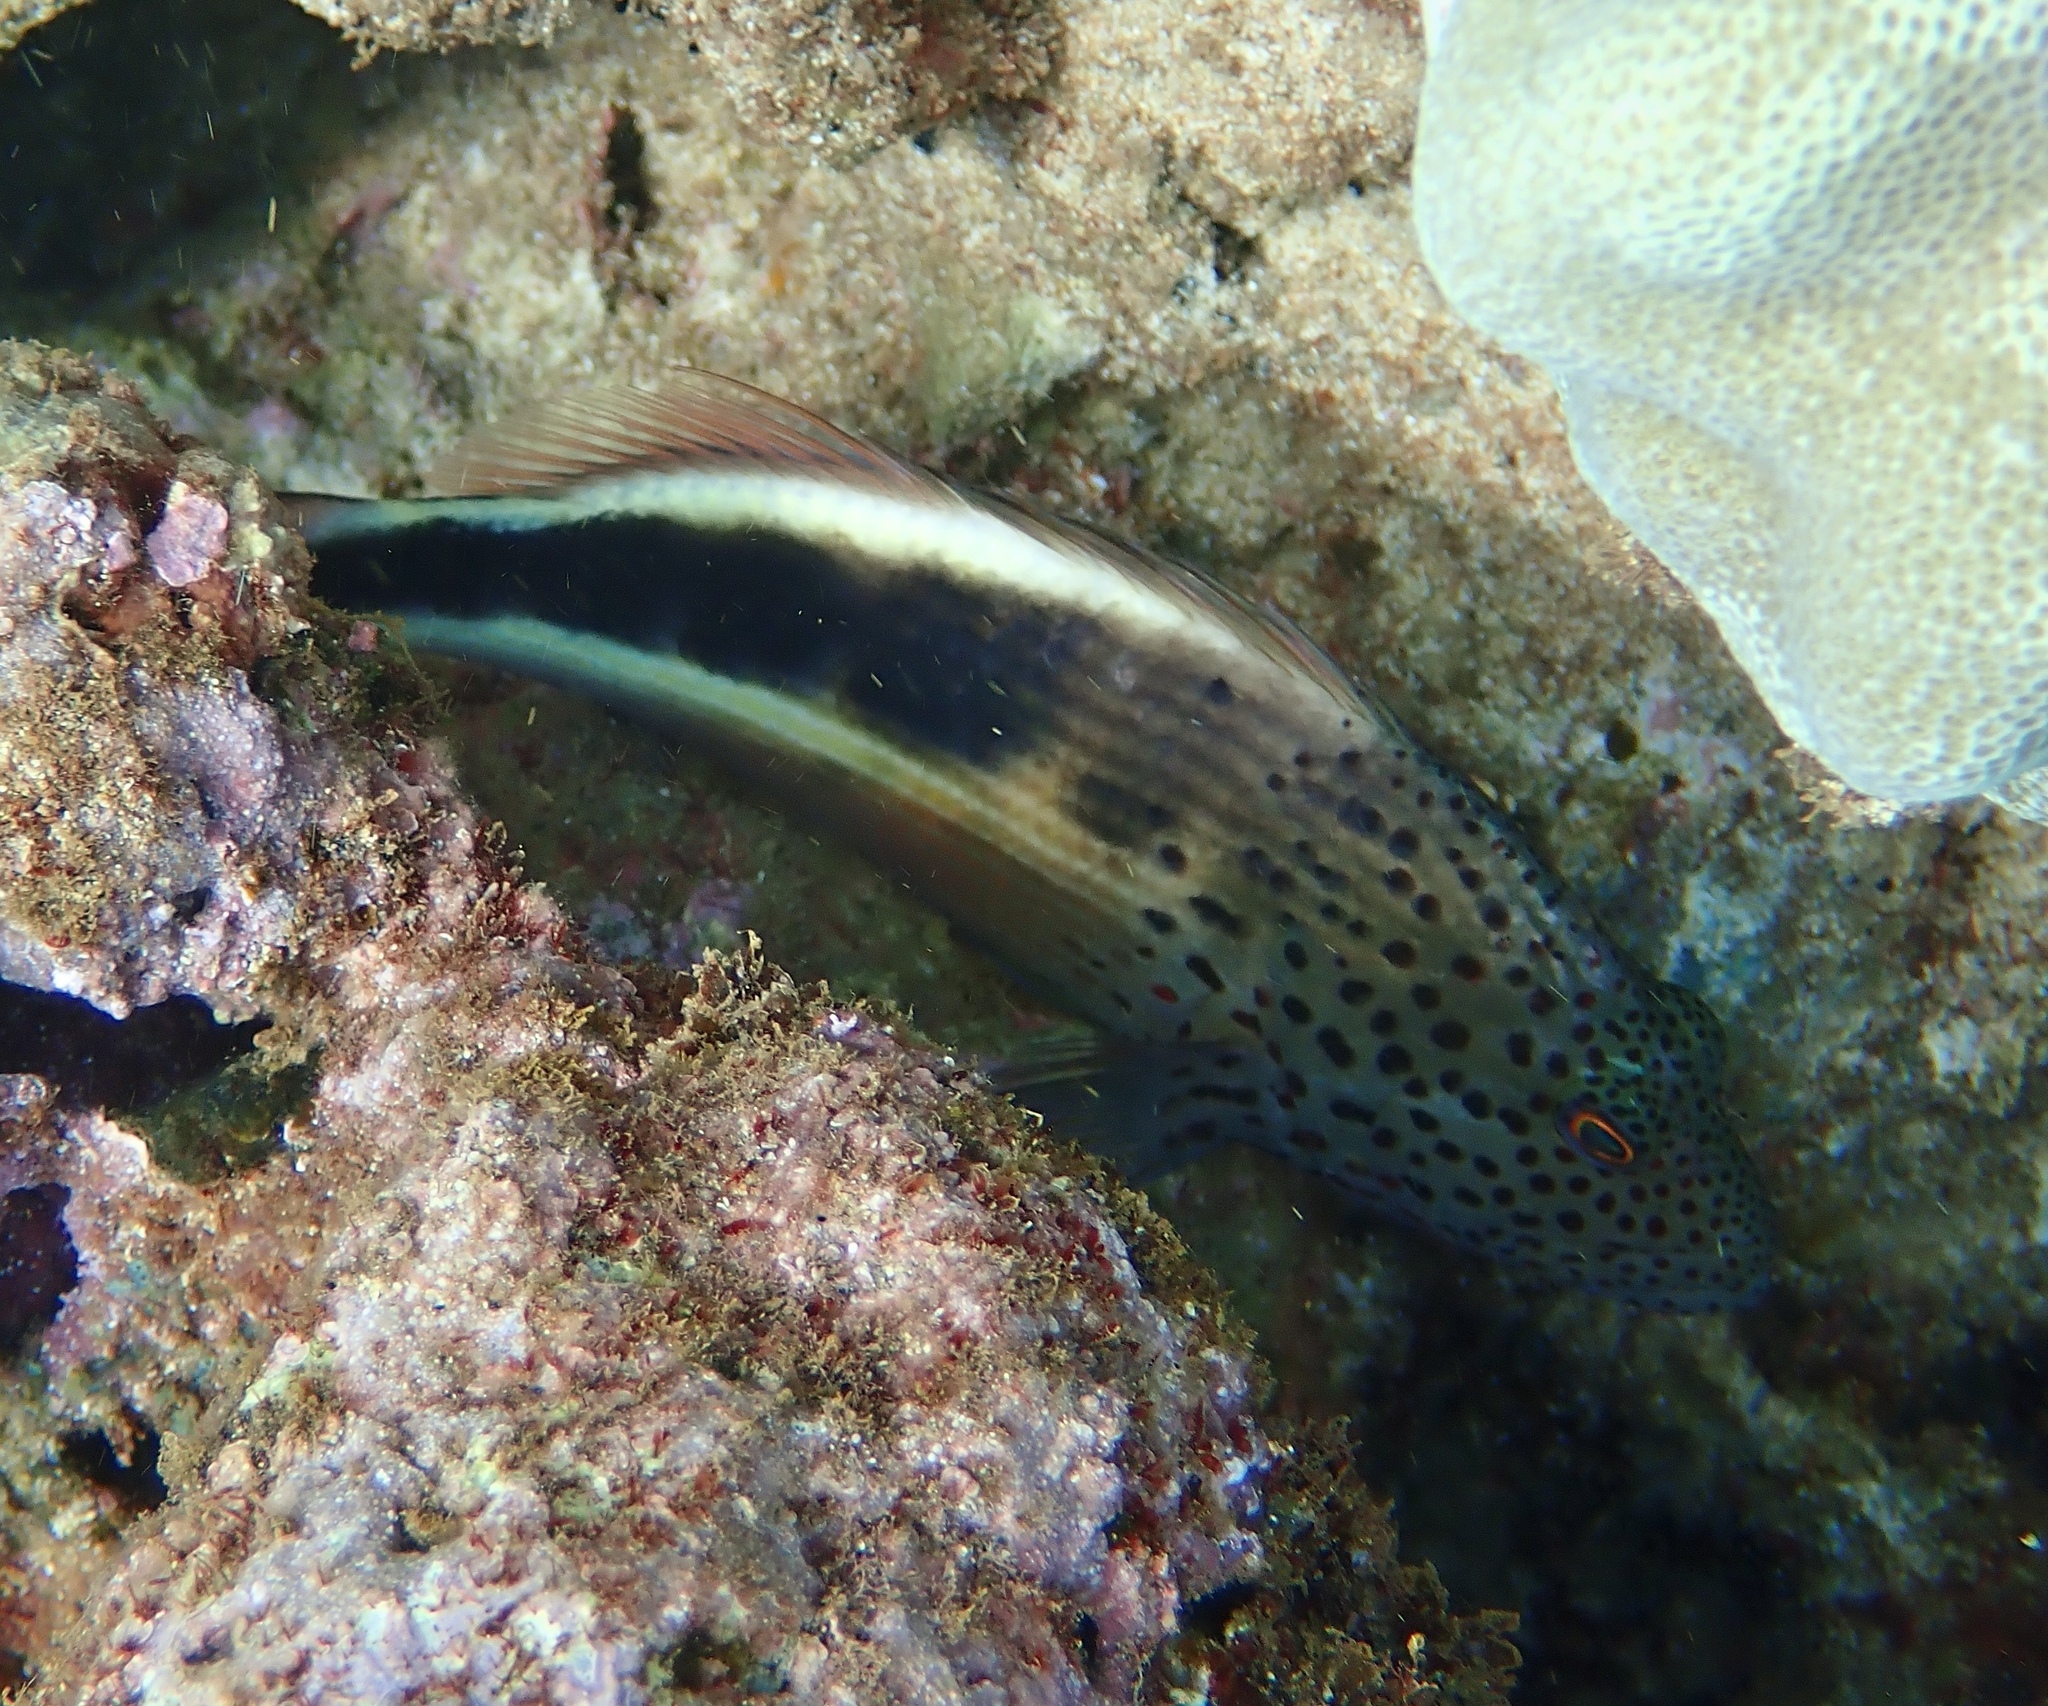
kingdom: Animalia
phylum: Chordata
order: Perciformes
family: Cirrhitidae
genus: Paracirrhites
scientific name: Paracirrhites forsteri
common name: Freckled hawkfish
